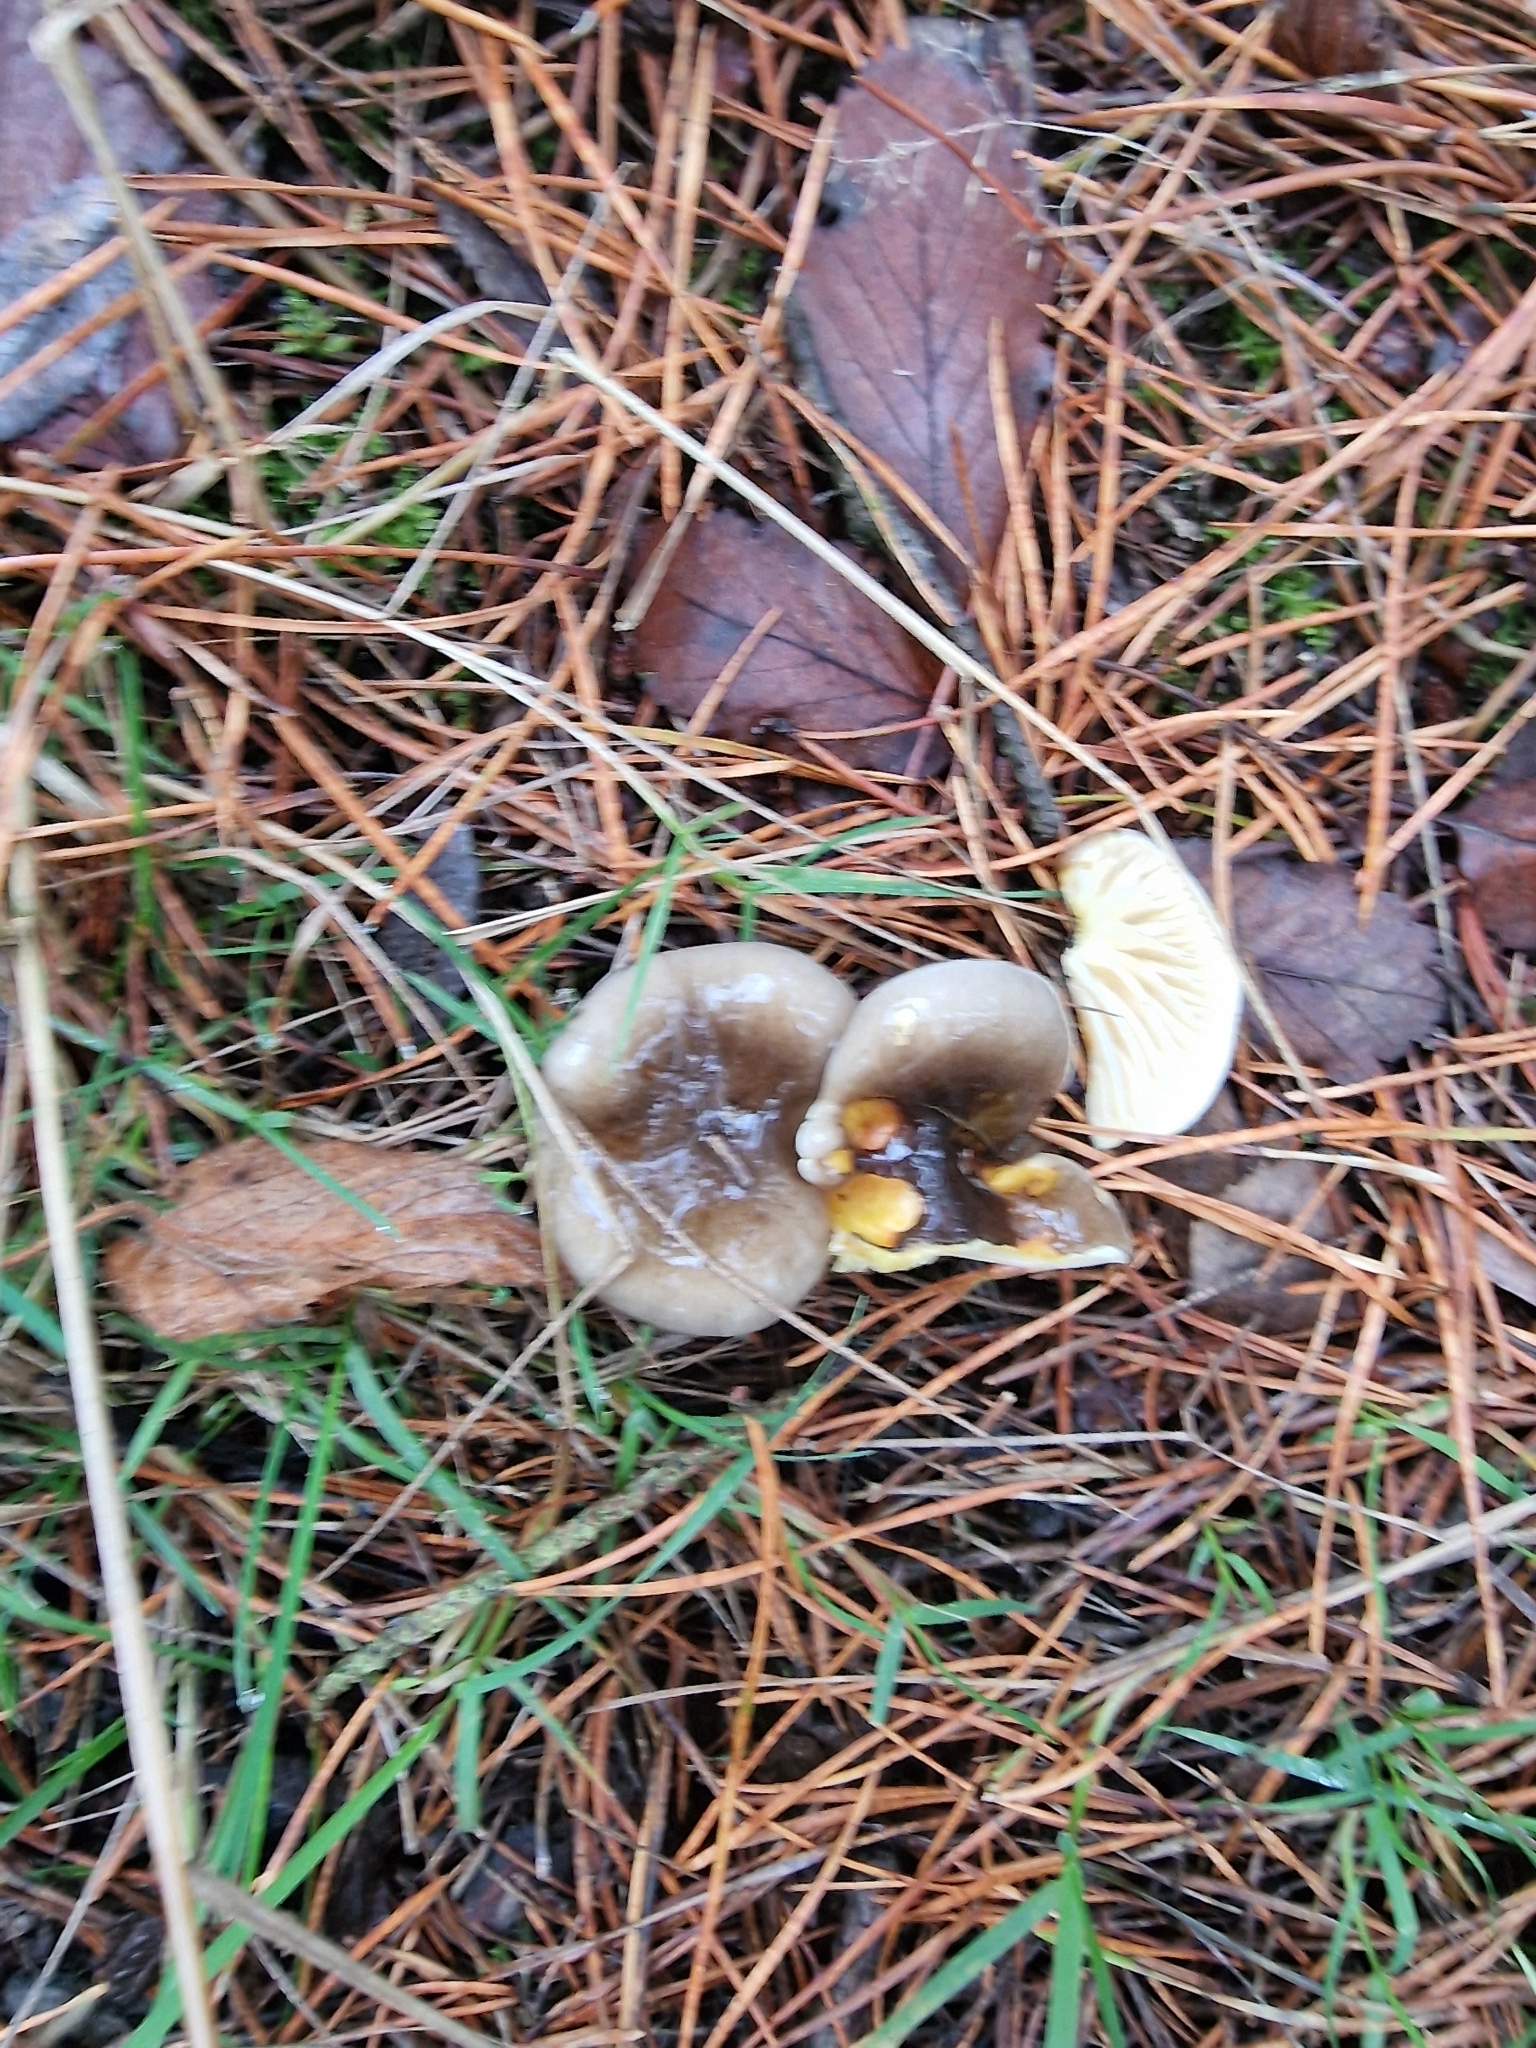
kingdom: Fungi
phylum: Basidiomycota
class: Agaricomycetes
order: Agaricales
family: Hygrophoraceae
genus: Hygrophorus
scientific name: Hygrophorus hypothejus
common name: Herald of winter
